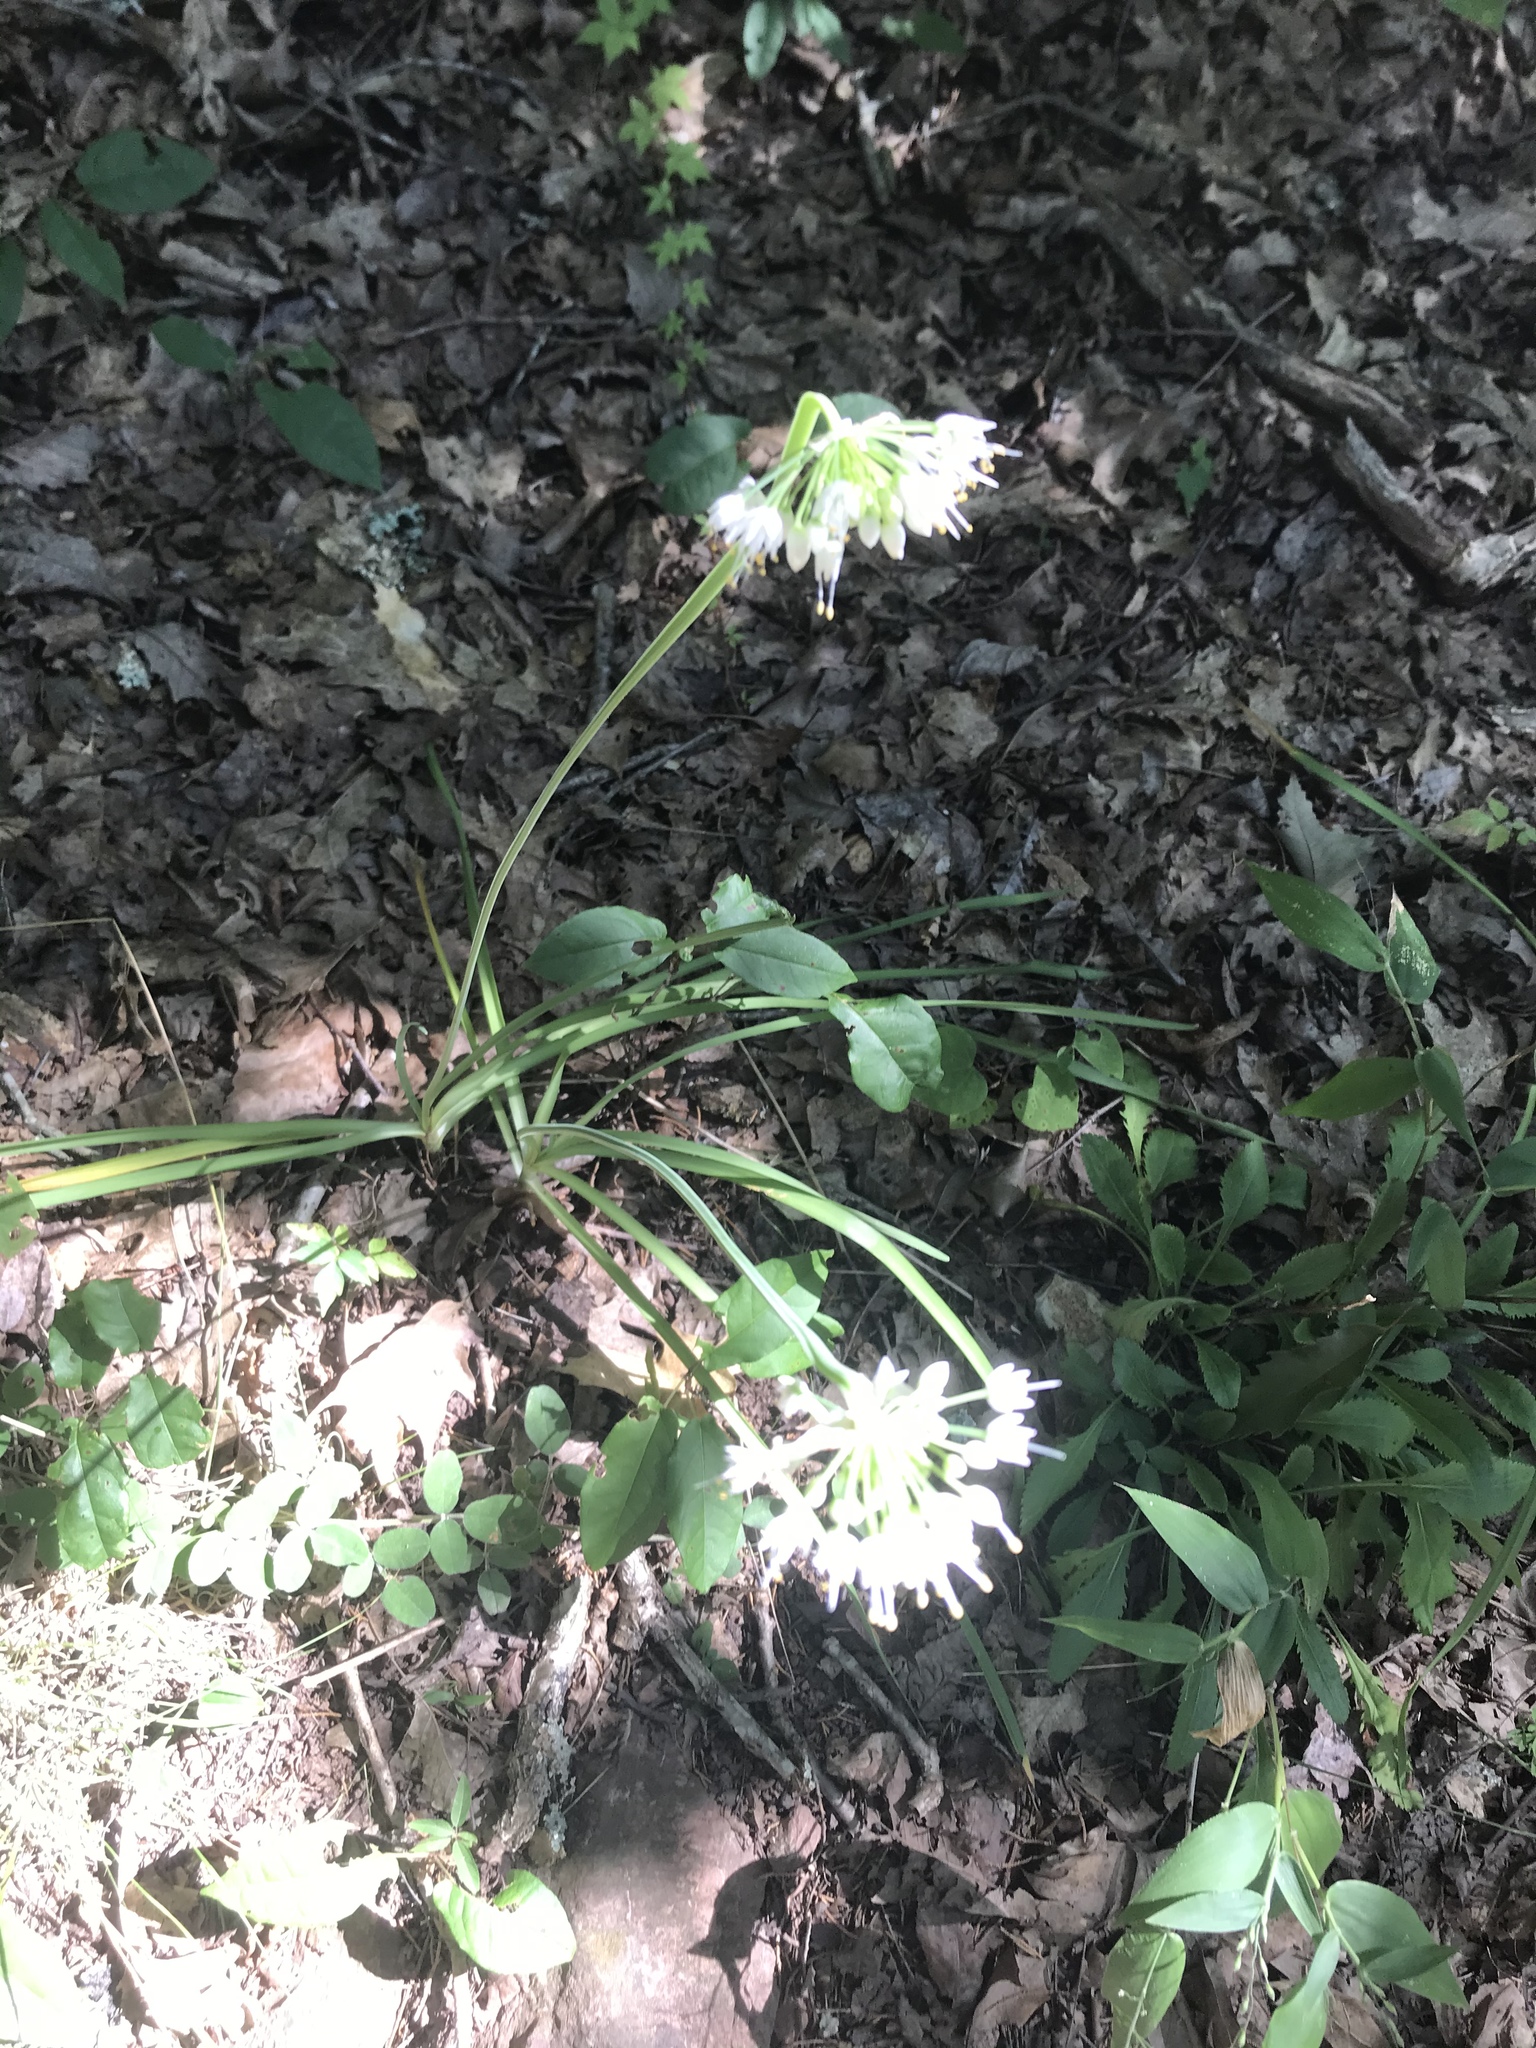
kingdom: Plantae
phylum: Tracheophyta
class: Liliopsida
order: Asparagales
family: Amaryllidaceae
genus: Allium
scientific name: Allium cernuum
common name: Nodding onion
